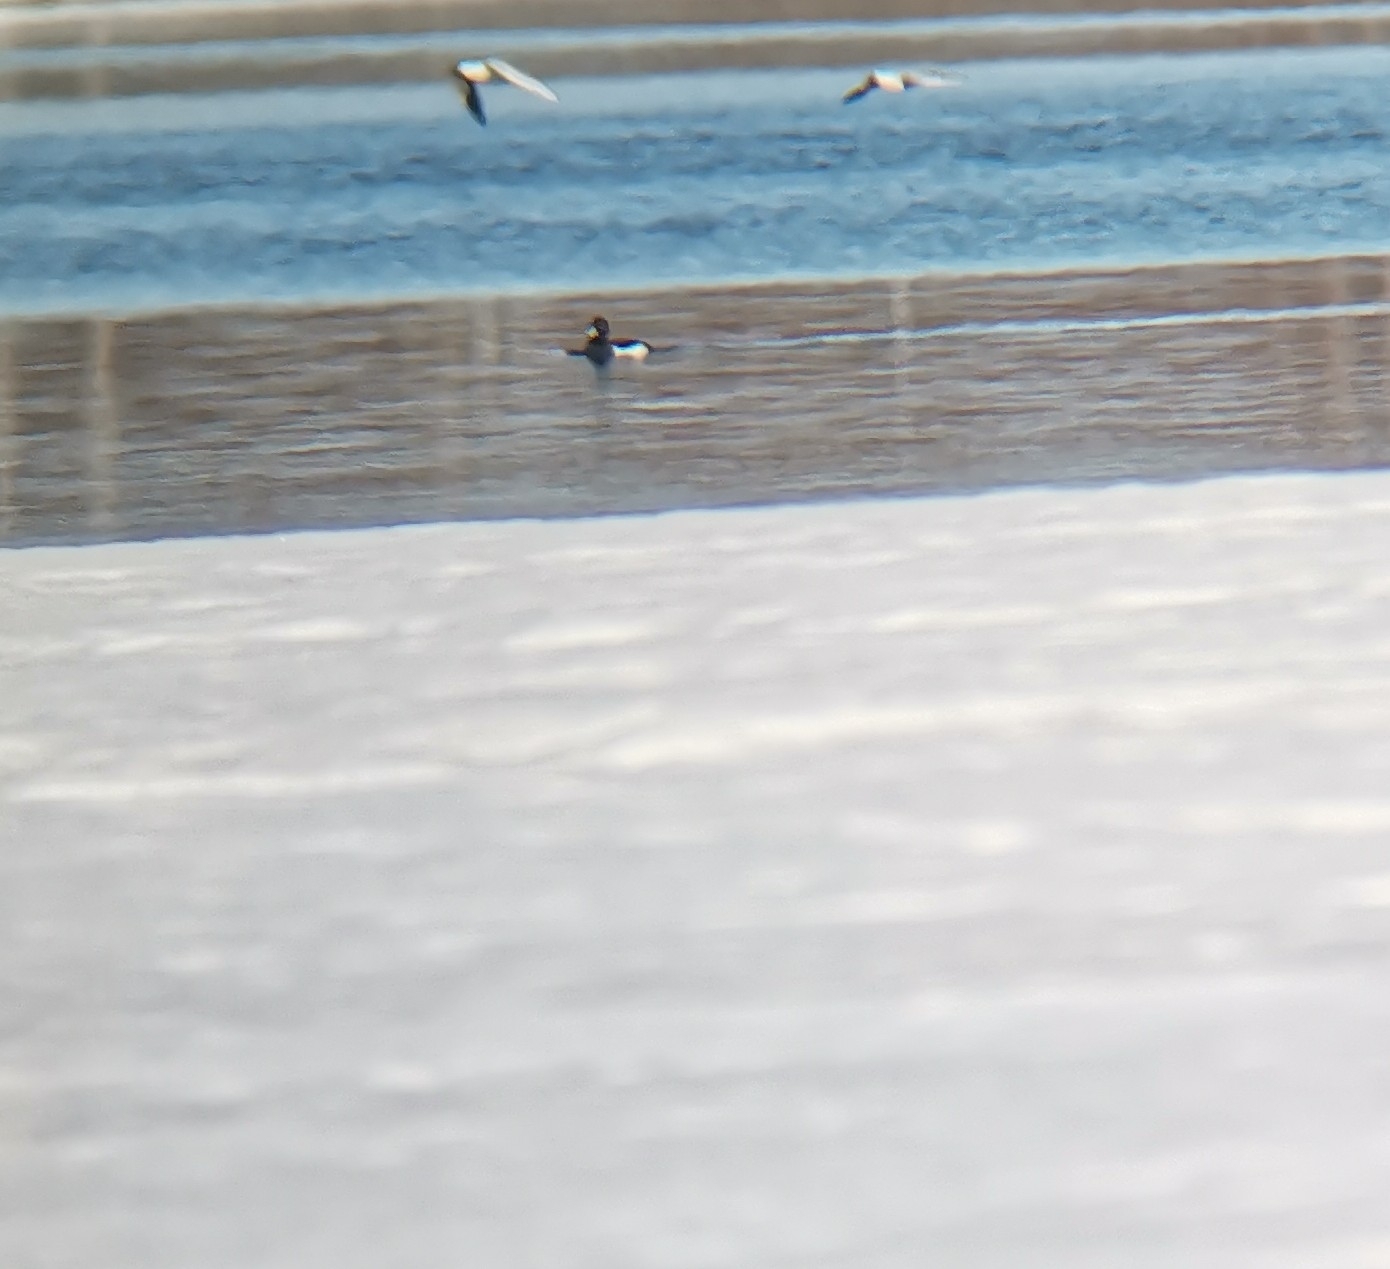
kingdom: Animalia
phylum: Chordata
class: Aves
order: Anseriformes
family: Anatidae
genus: Aythya
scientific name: Aythya fuligula
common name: Tufted duck
